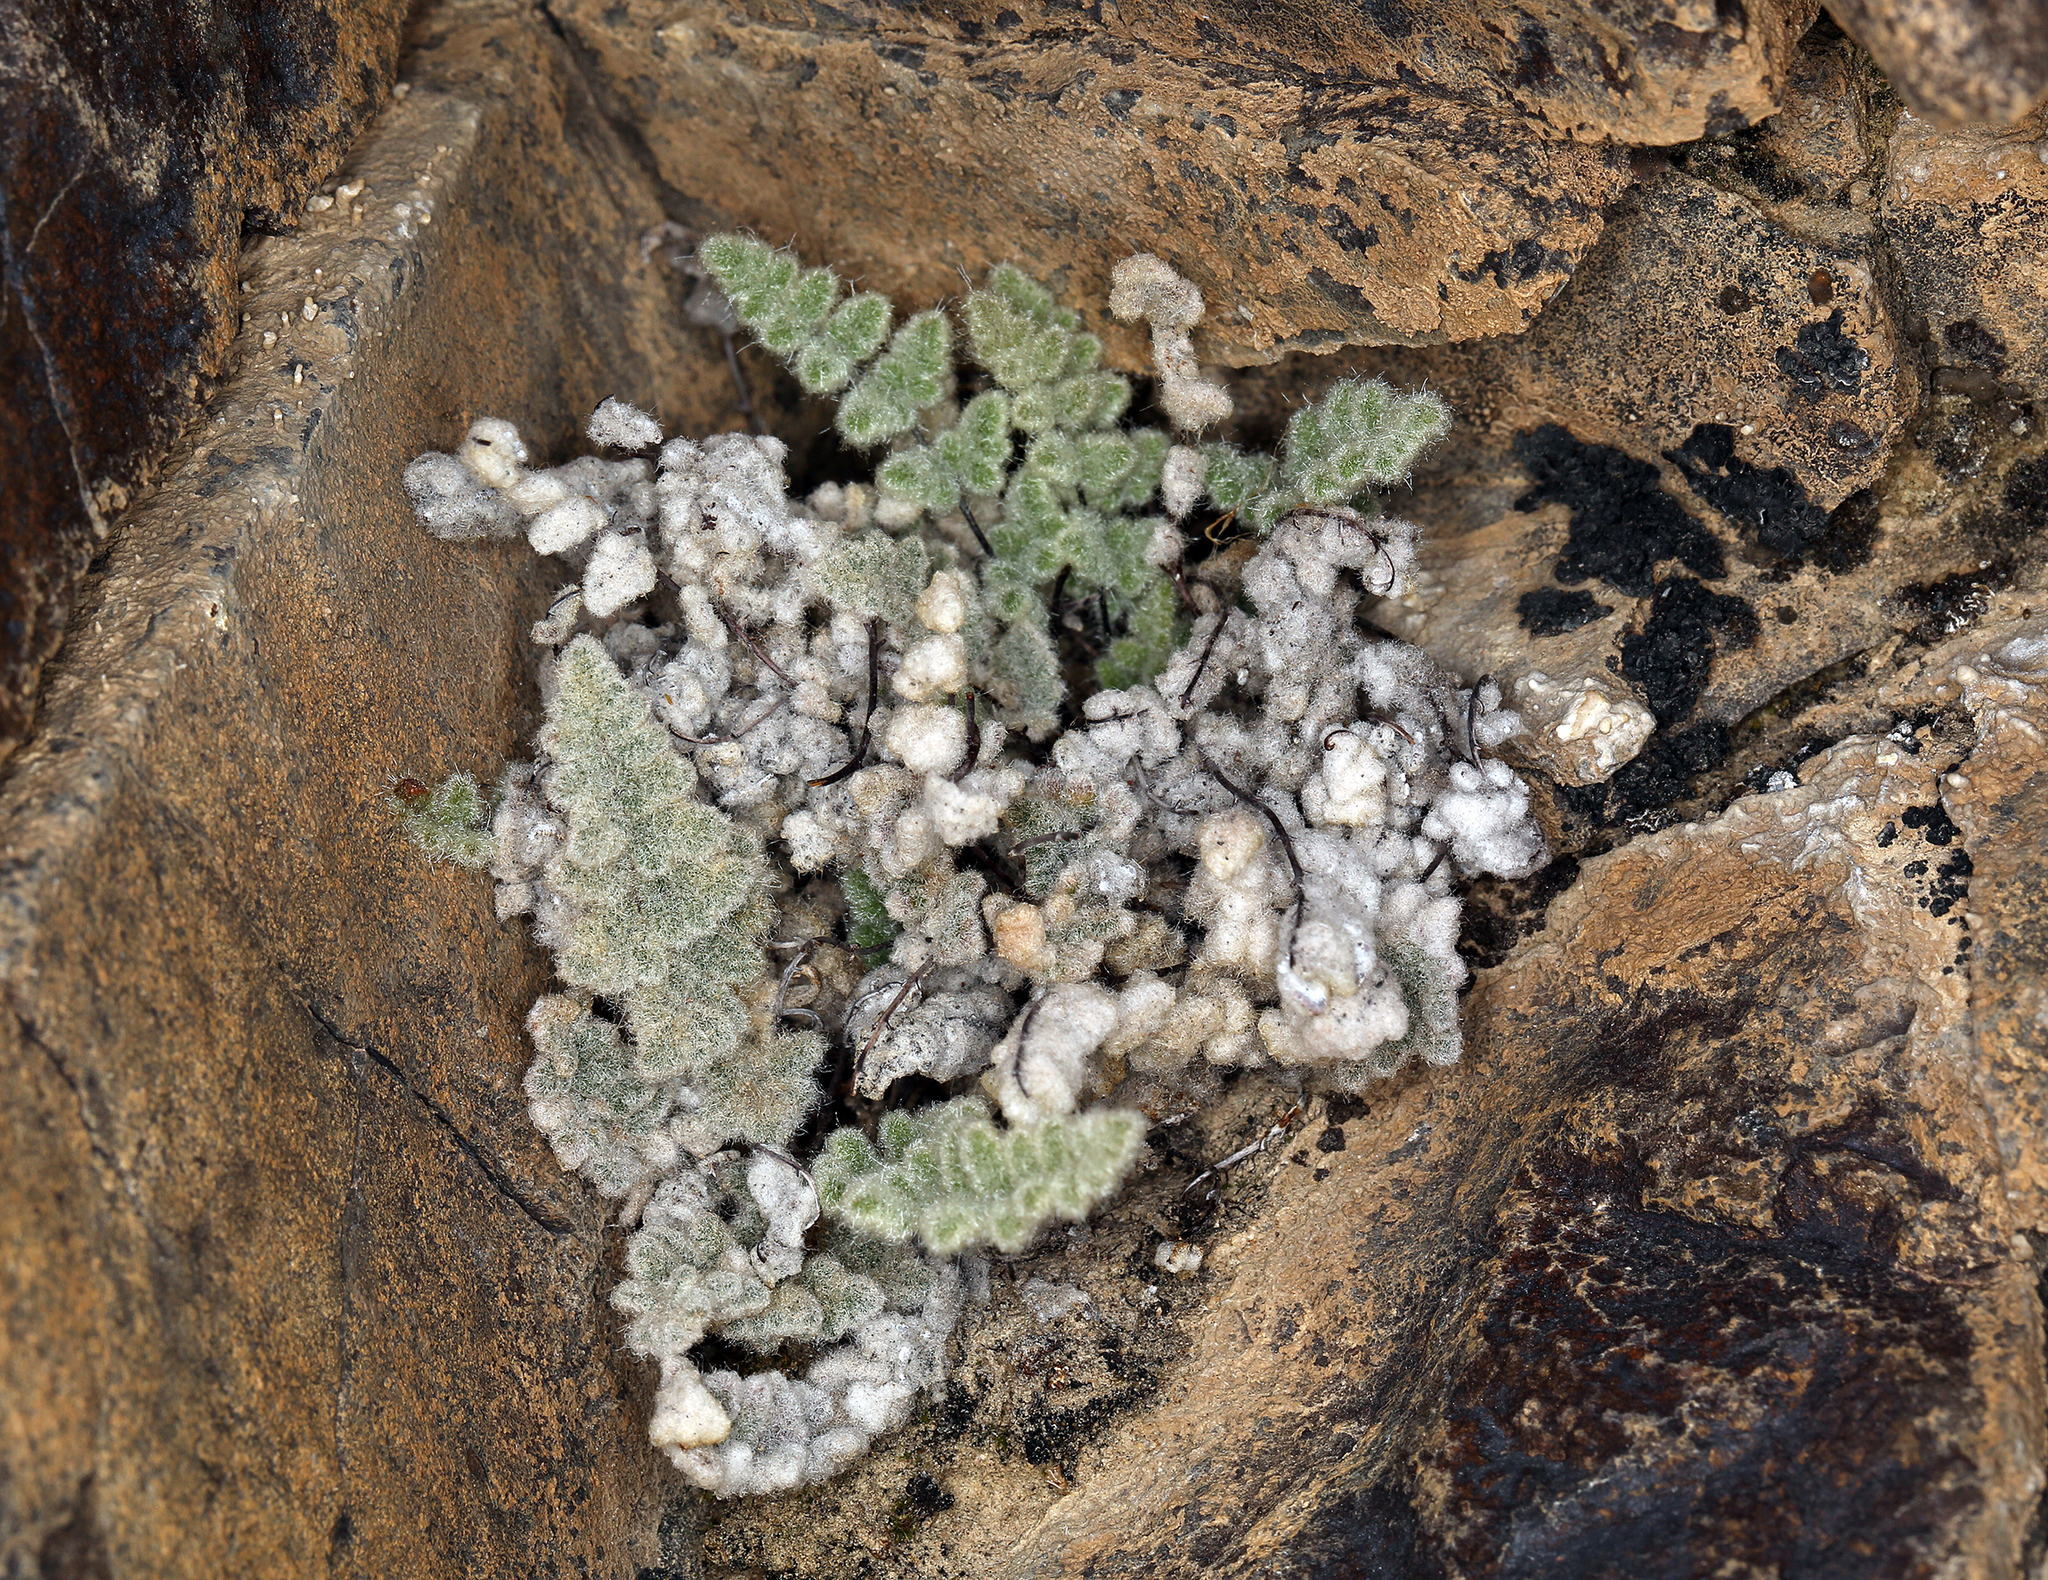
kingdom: Plantae
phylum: Tracheophyta
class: Polypodiopsida
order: Polypodiales
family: Pteridaceae
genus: Myriopteris
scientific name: Myriopteris parryi
